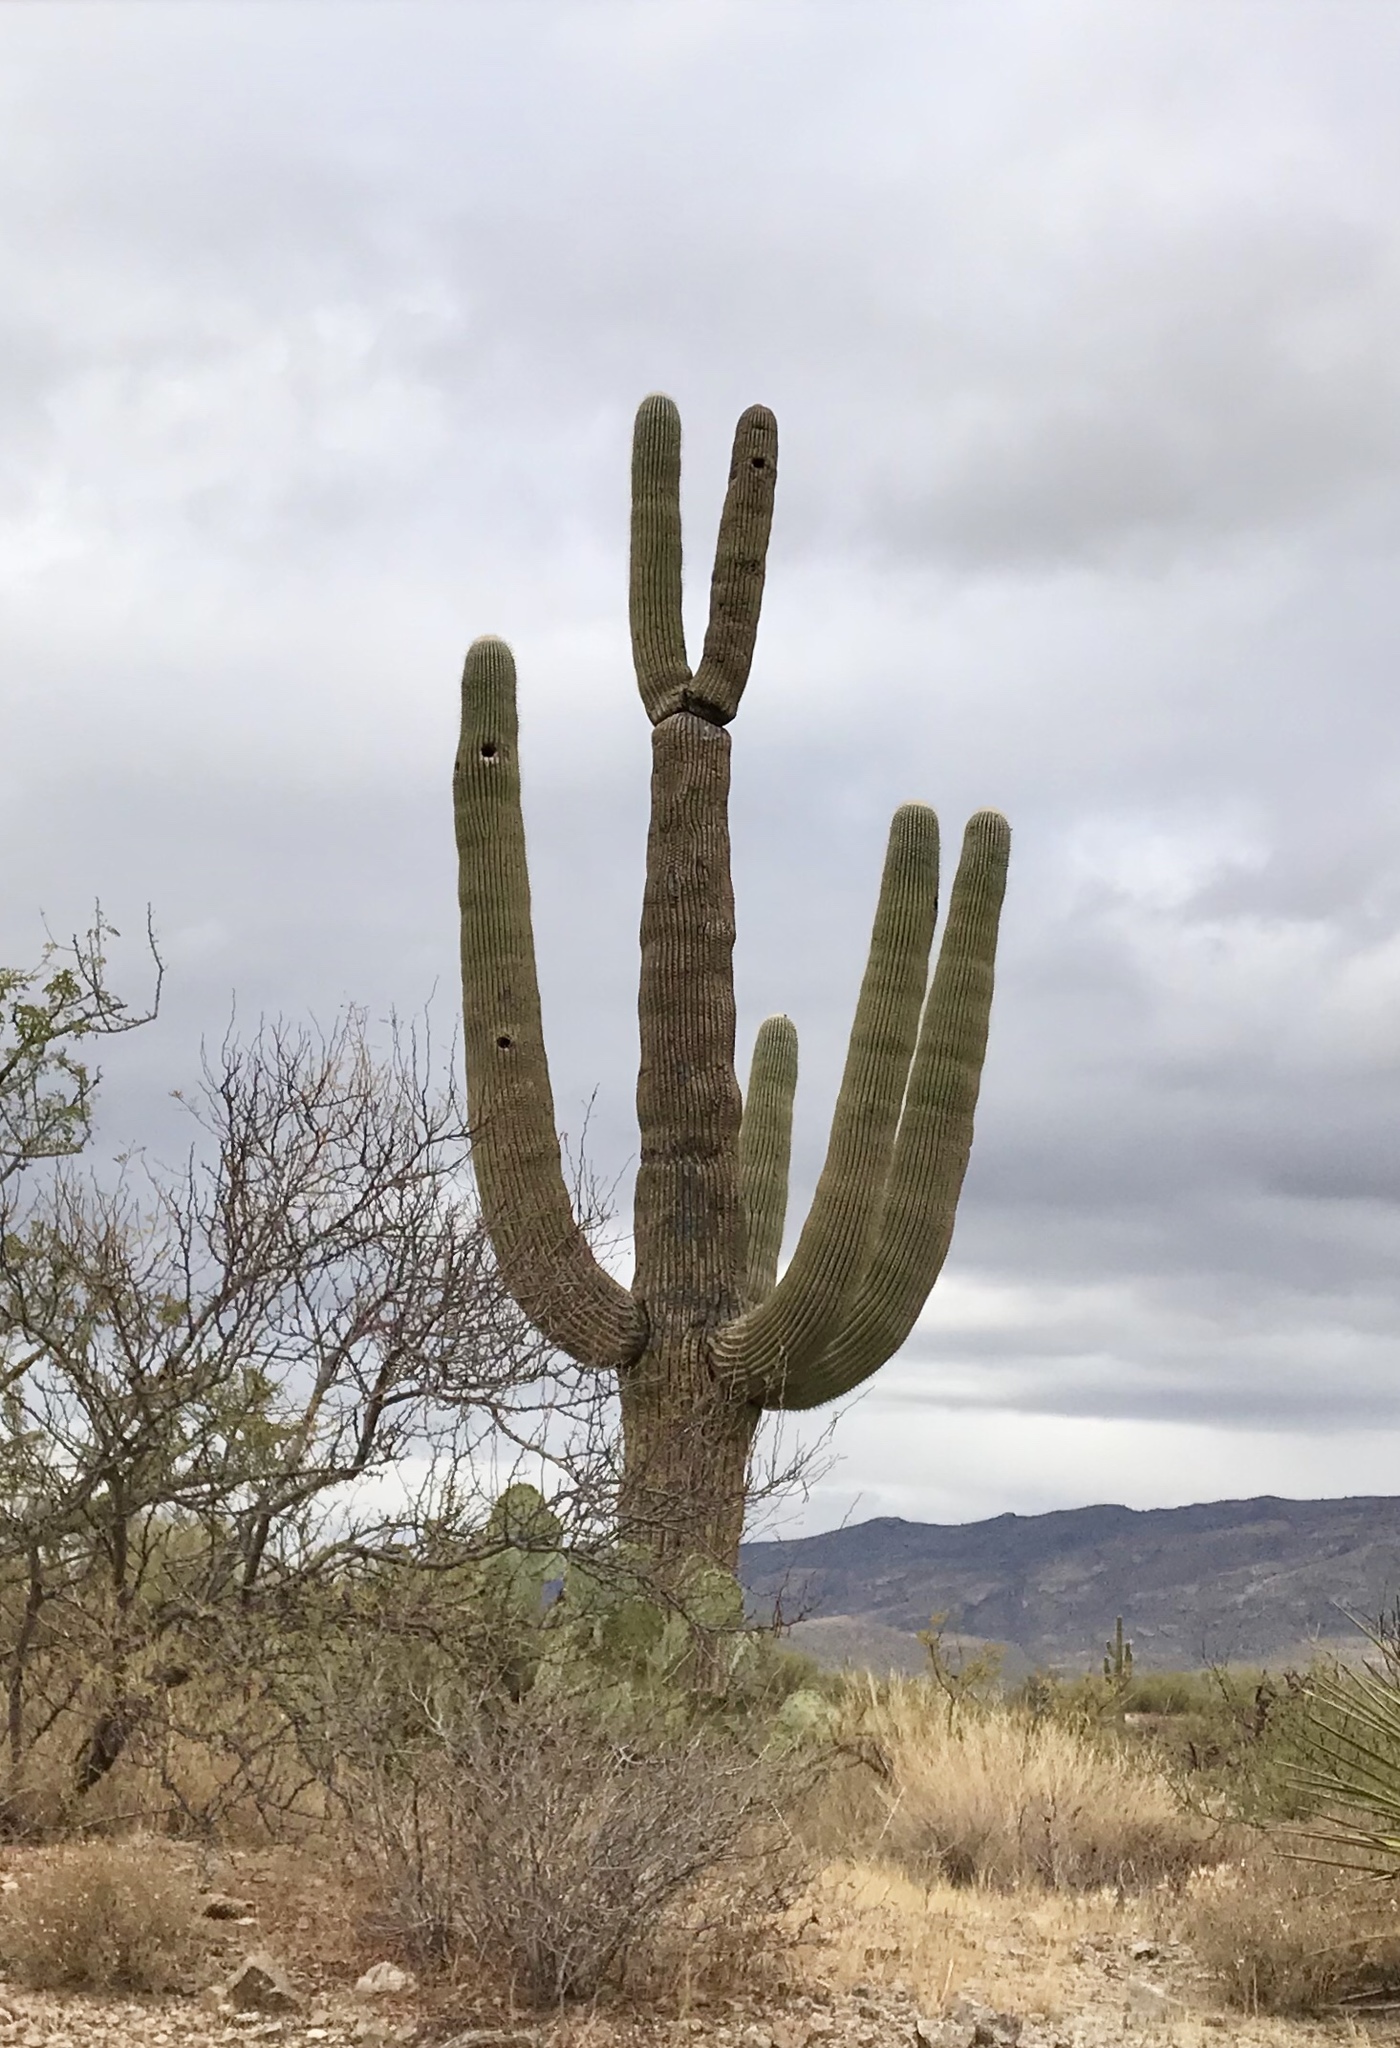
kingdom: Plantae
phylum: Tracheophyta
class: Magnoliopsida
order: Caryophyllales
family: Cactaceae
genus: Carnegiea
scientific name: Carnegiea gigantea
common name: Saguaro
